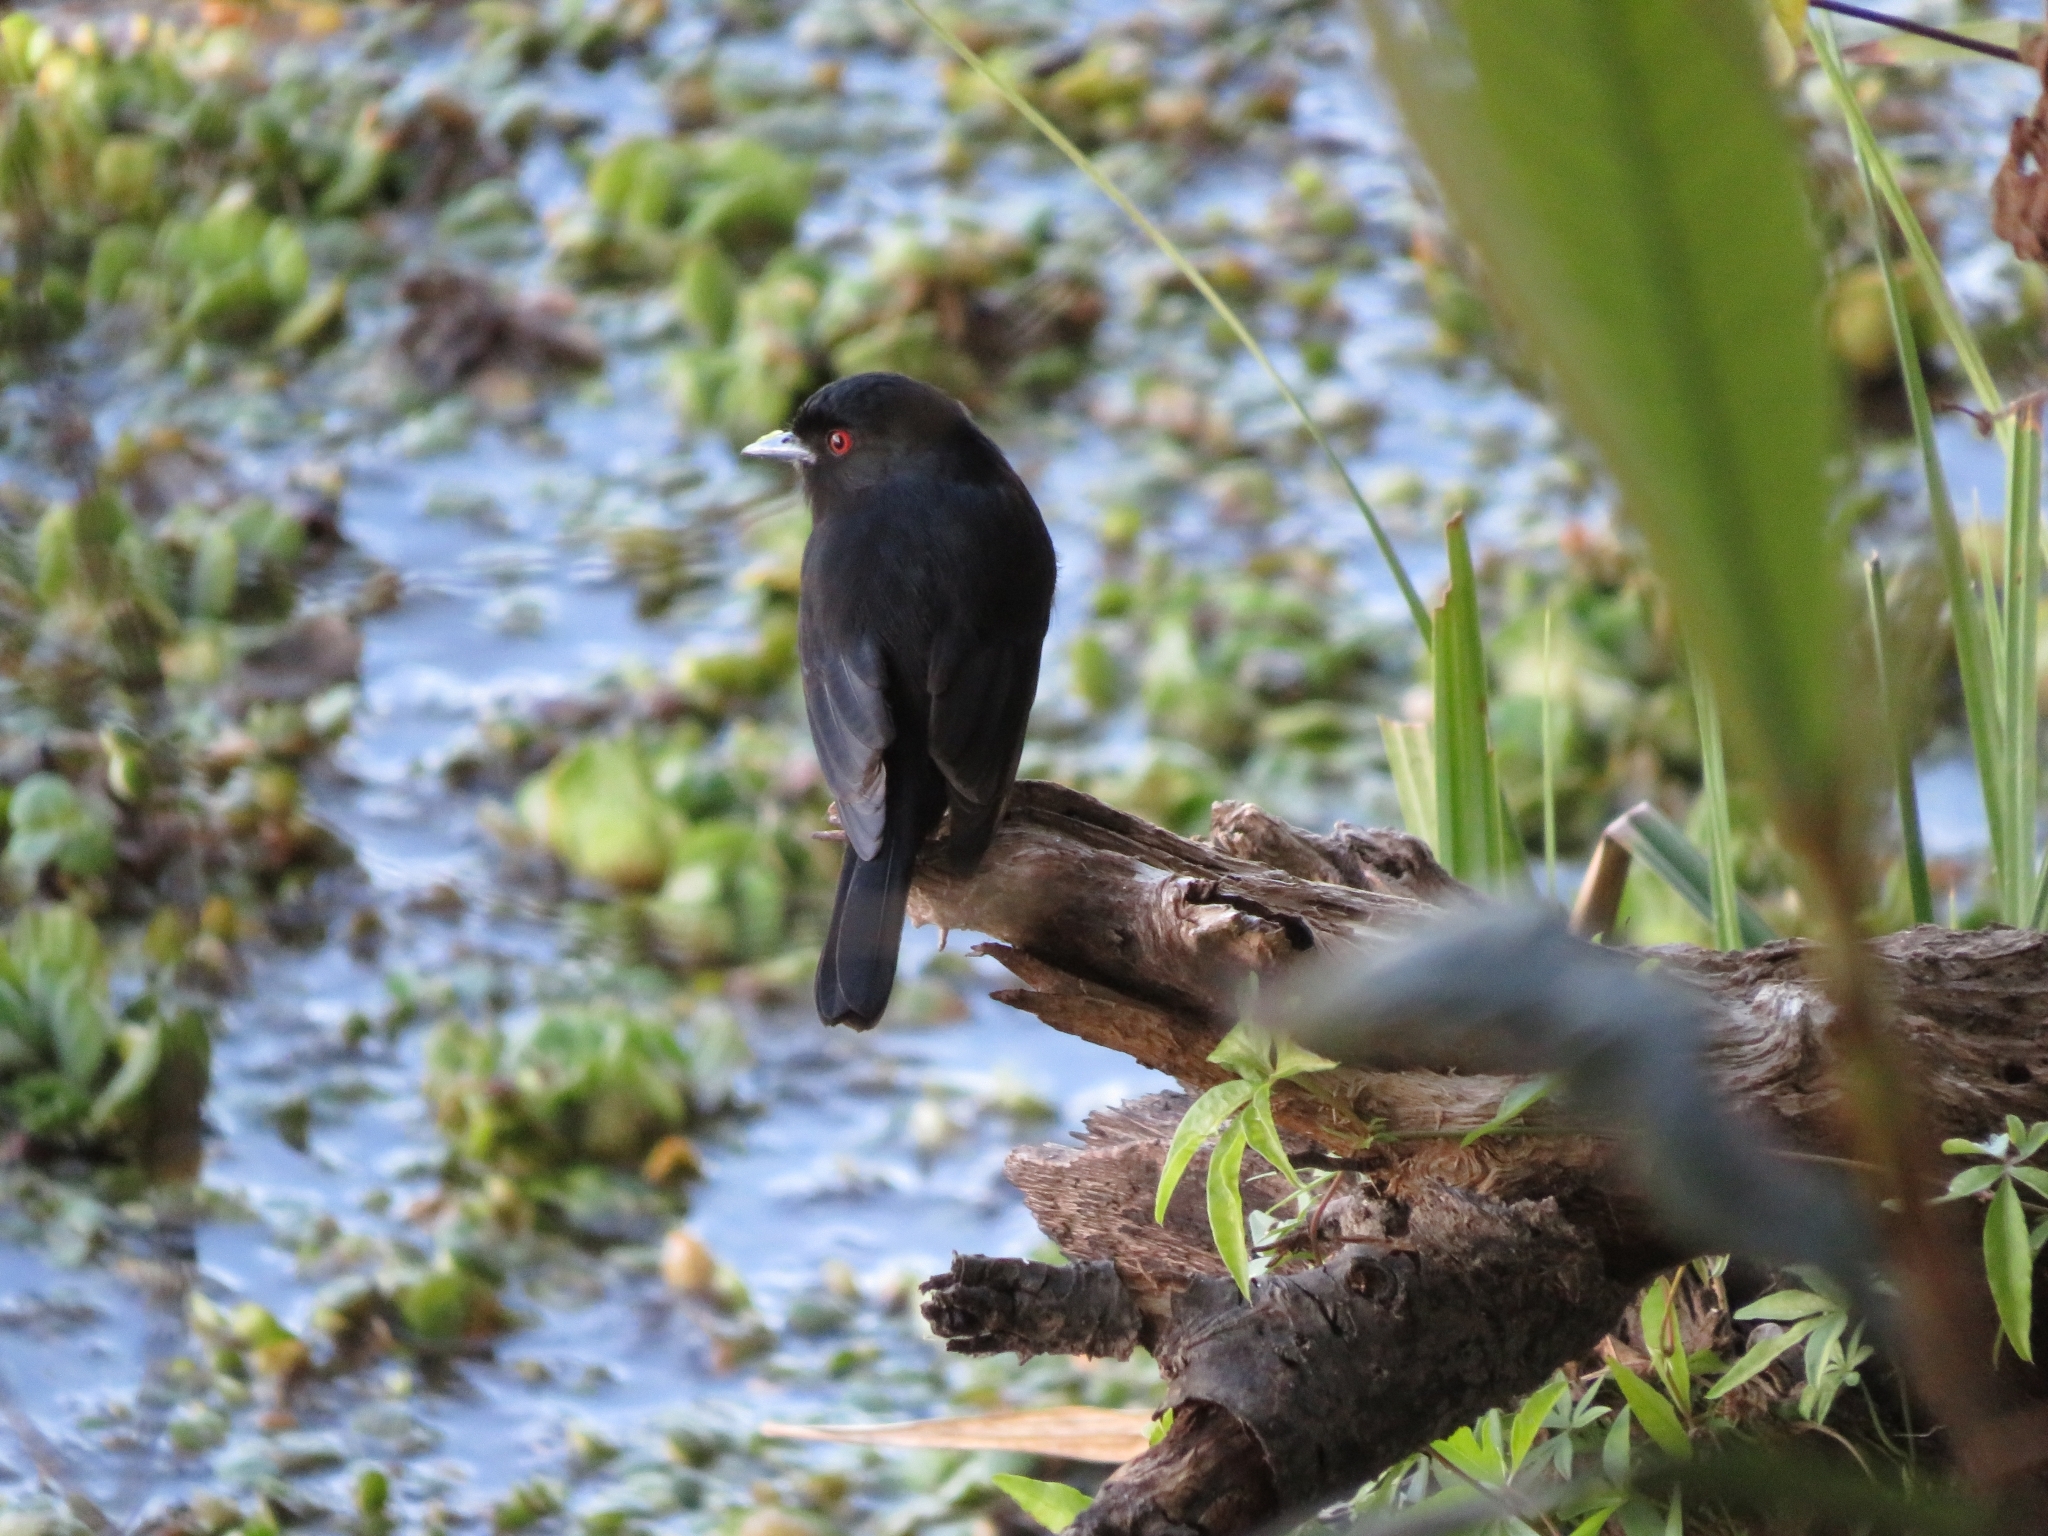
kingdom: Animalia
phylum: Chordata
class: Aves
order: Passeriformes
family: Tyrannidae
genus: Knipolegus
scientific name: Knipolegus cyanirostris
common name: Blue-billed black tyrant
